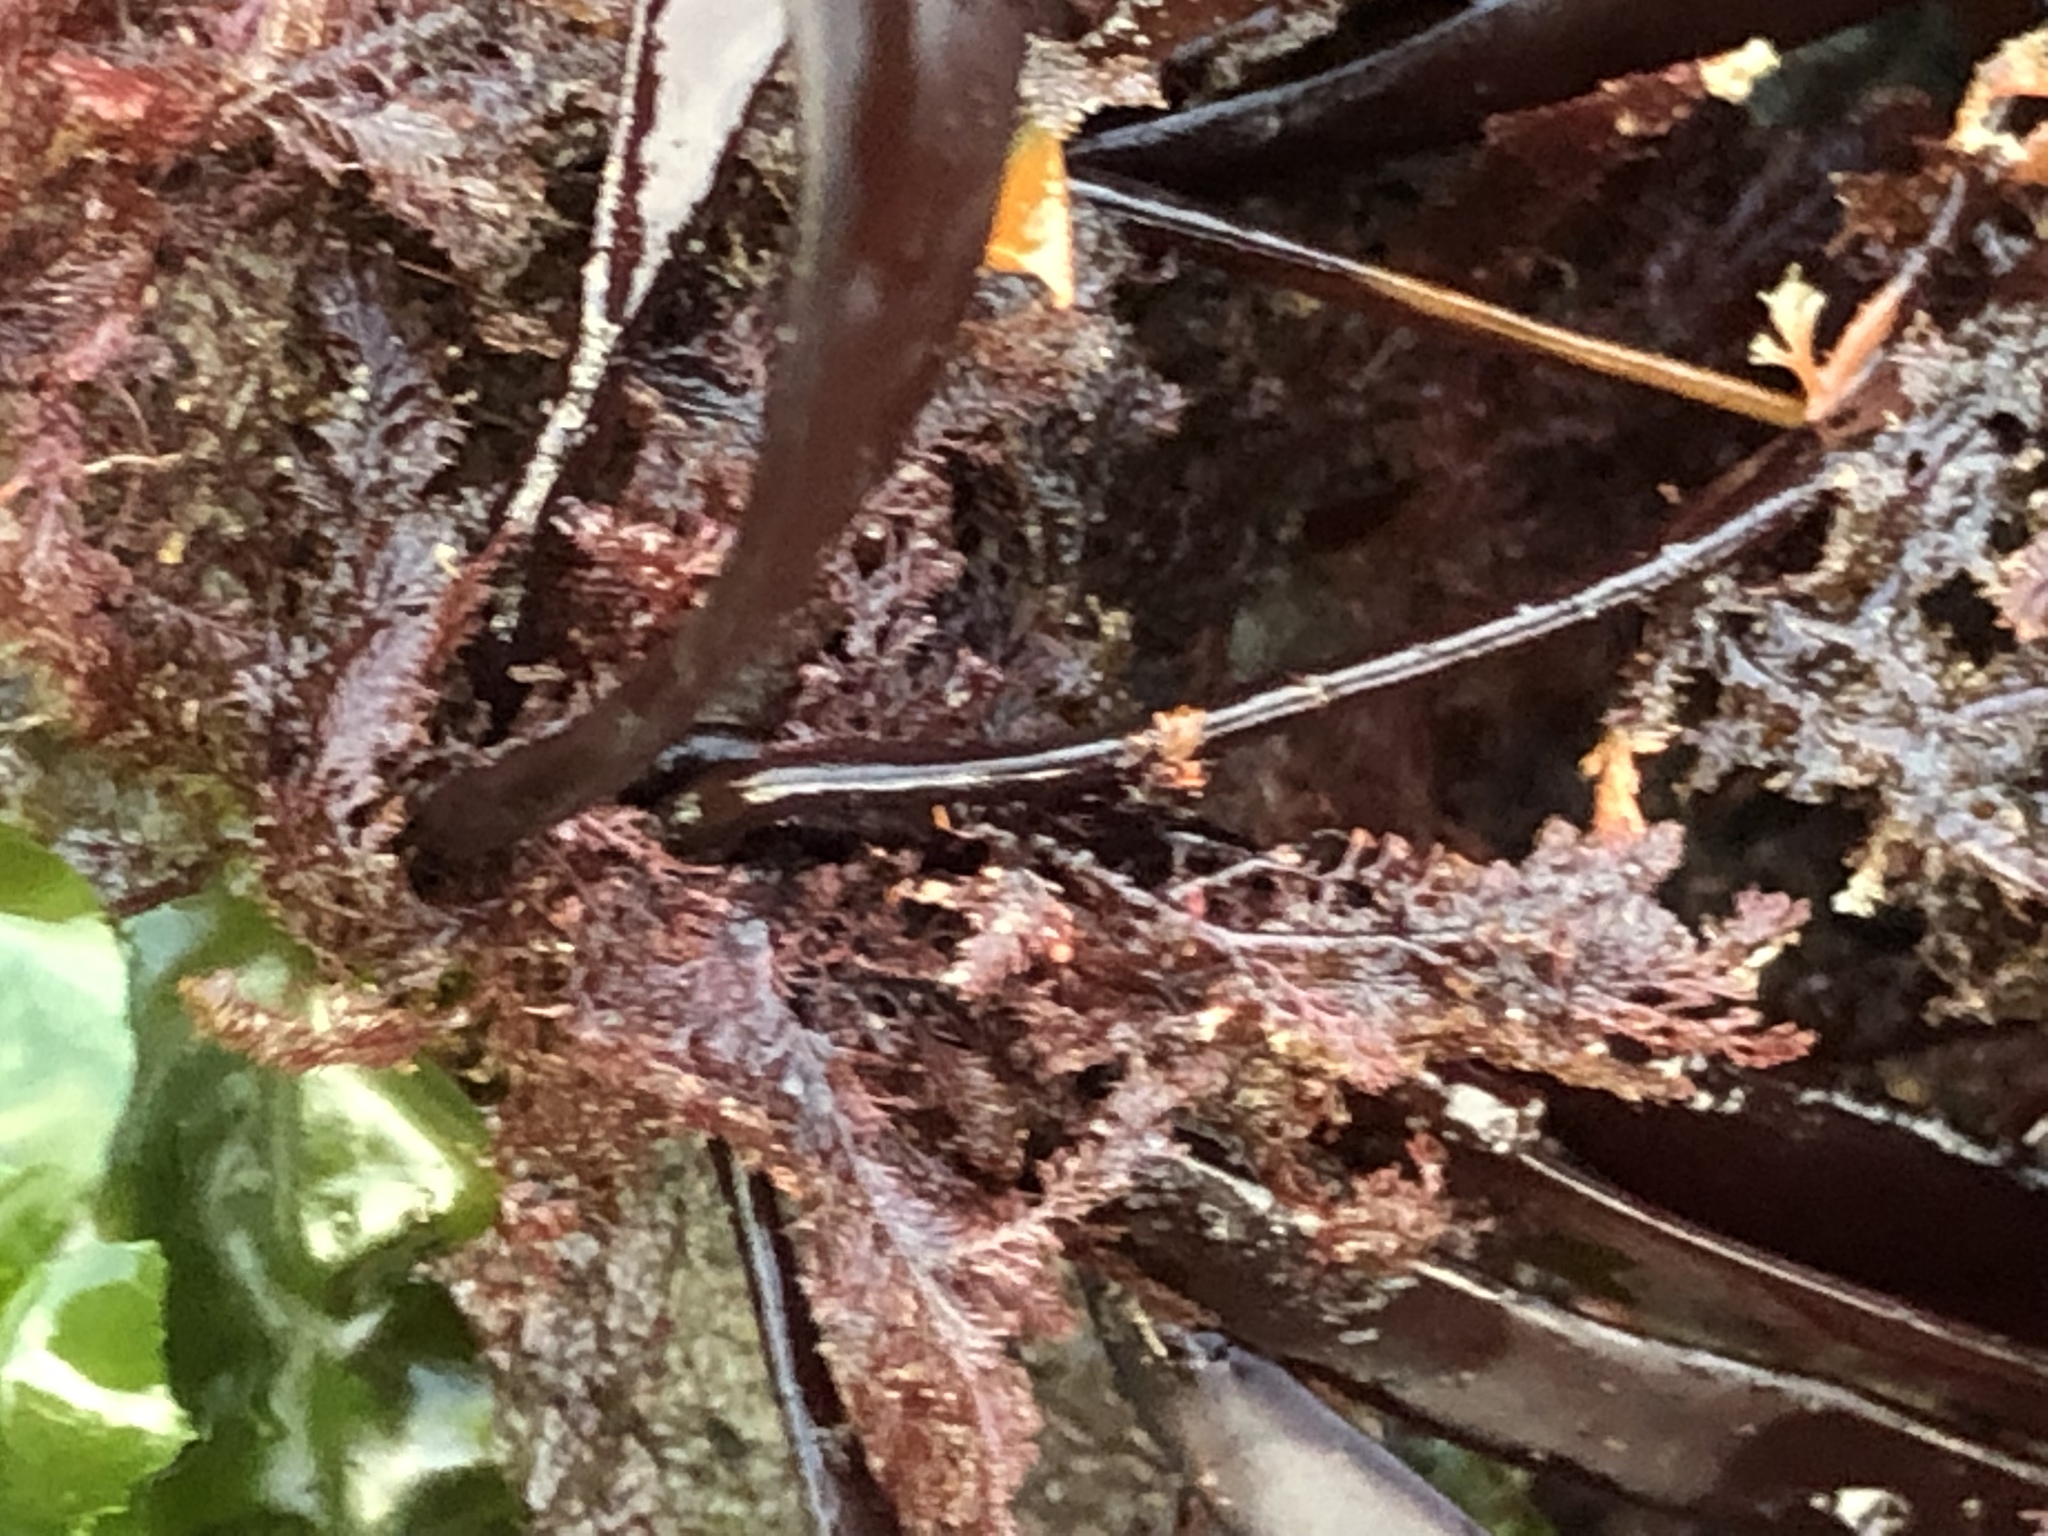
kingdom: Plantae
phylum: Rhodophyta
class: Florideophyceae
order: Halymeniales
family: Halymeniaceae
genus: Grateloupia
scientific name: Grateloupia Prionitis lanceolata
